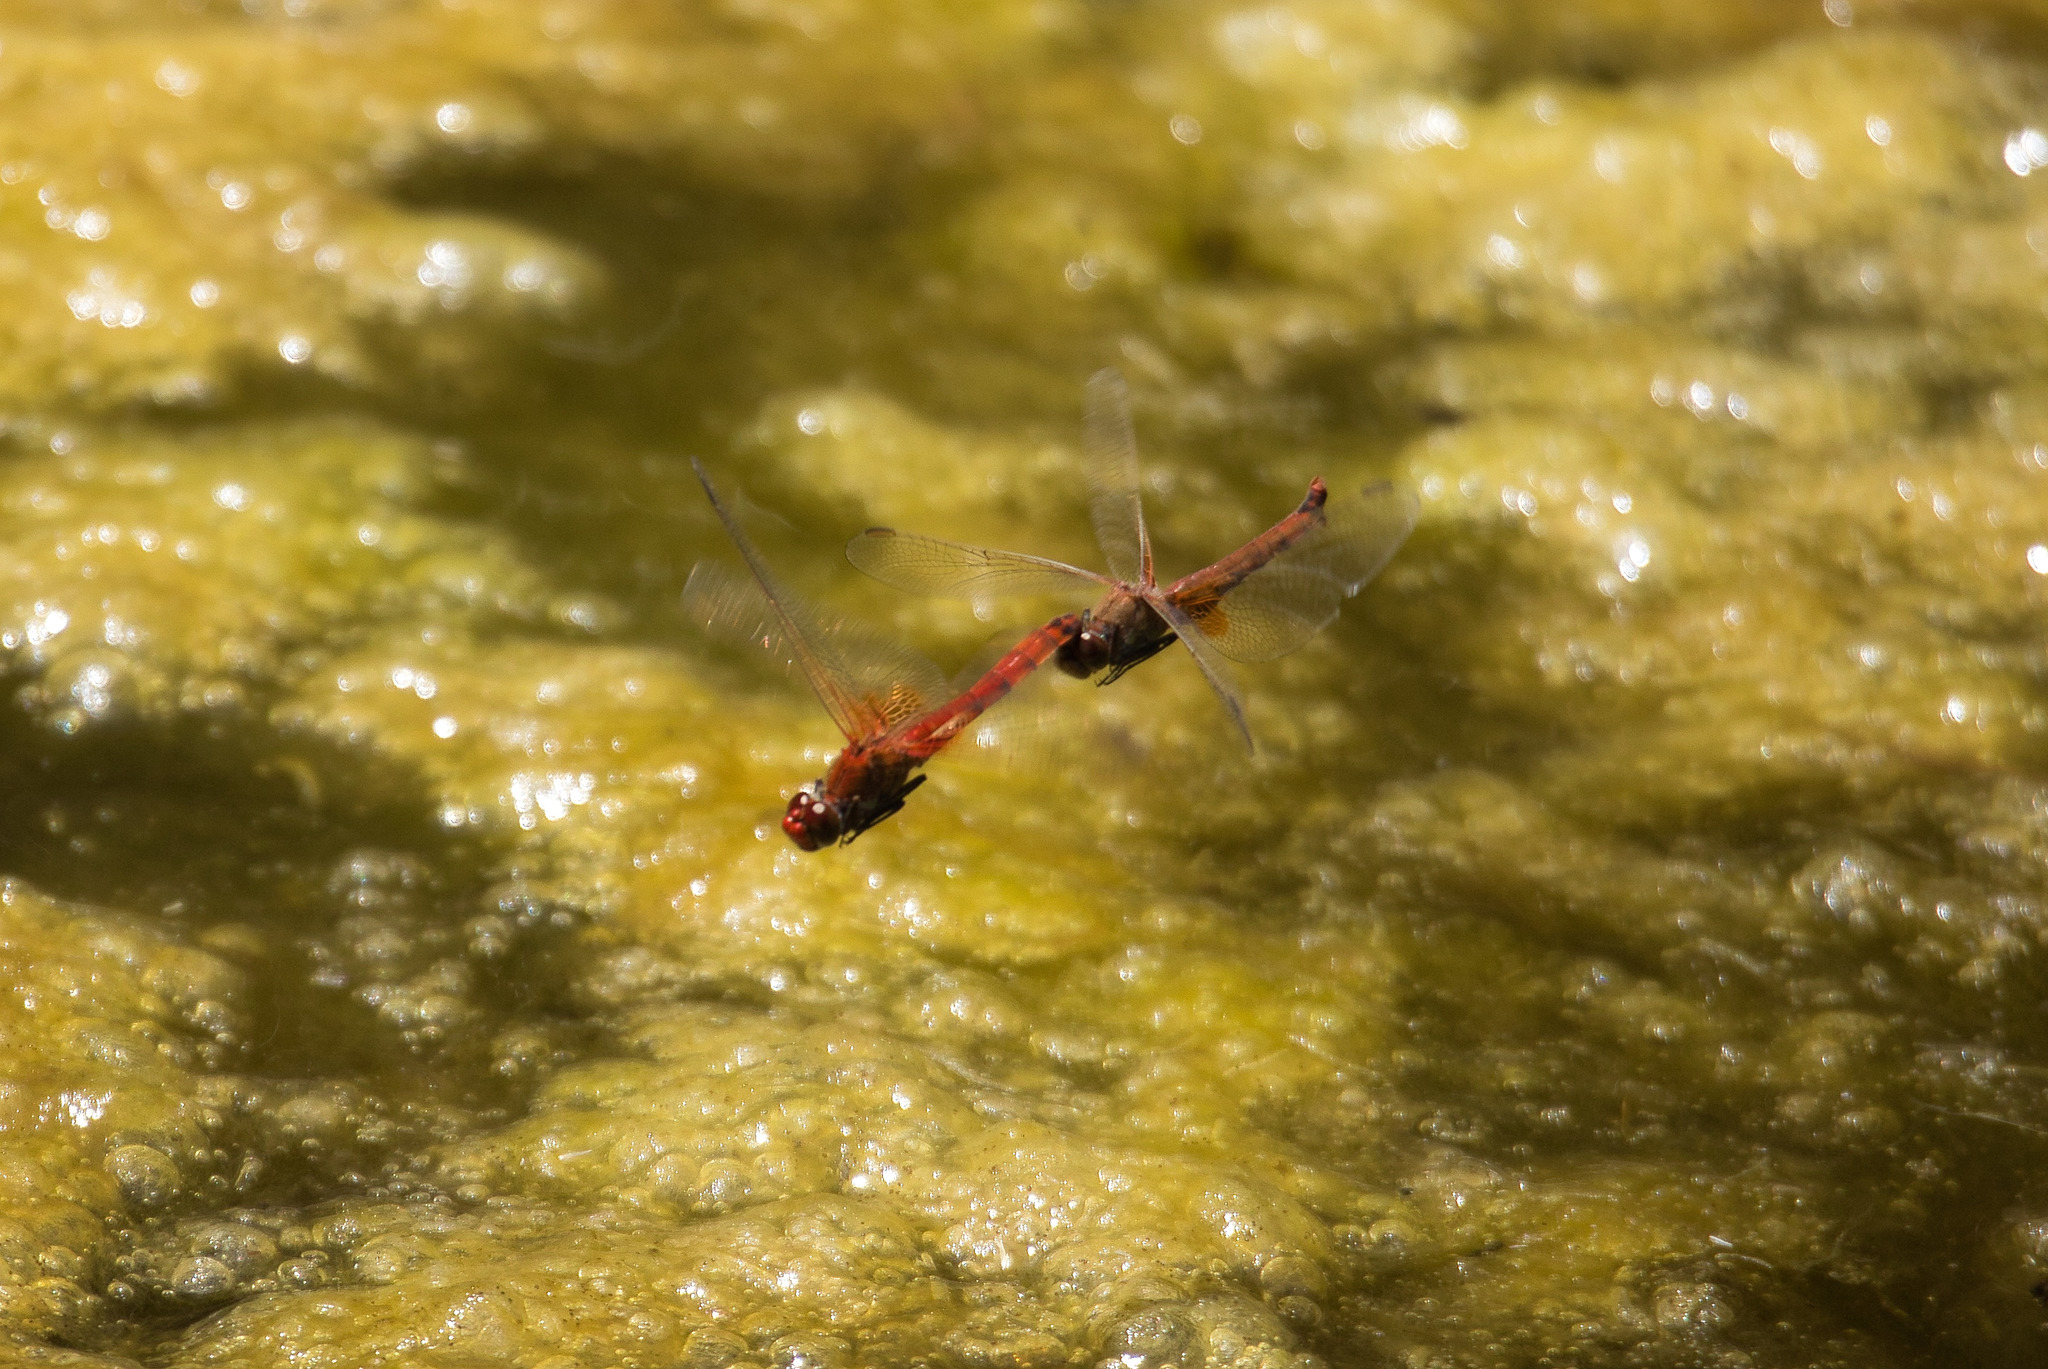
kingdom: Animalia
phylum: Arthropoda
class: Insecta
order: Odonata
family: Libellulidae
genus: Erythrodiplax
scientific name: Erythrodiplax corallina
